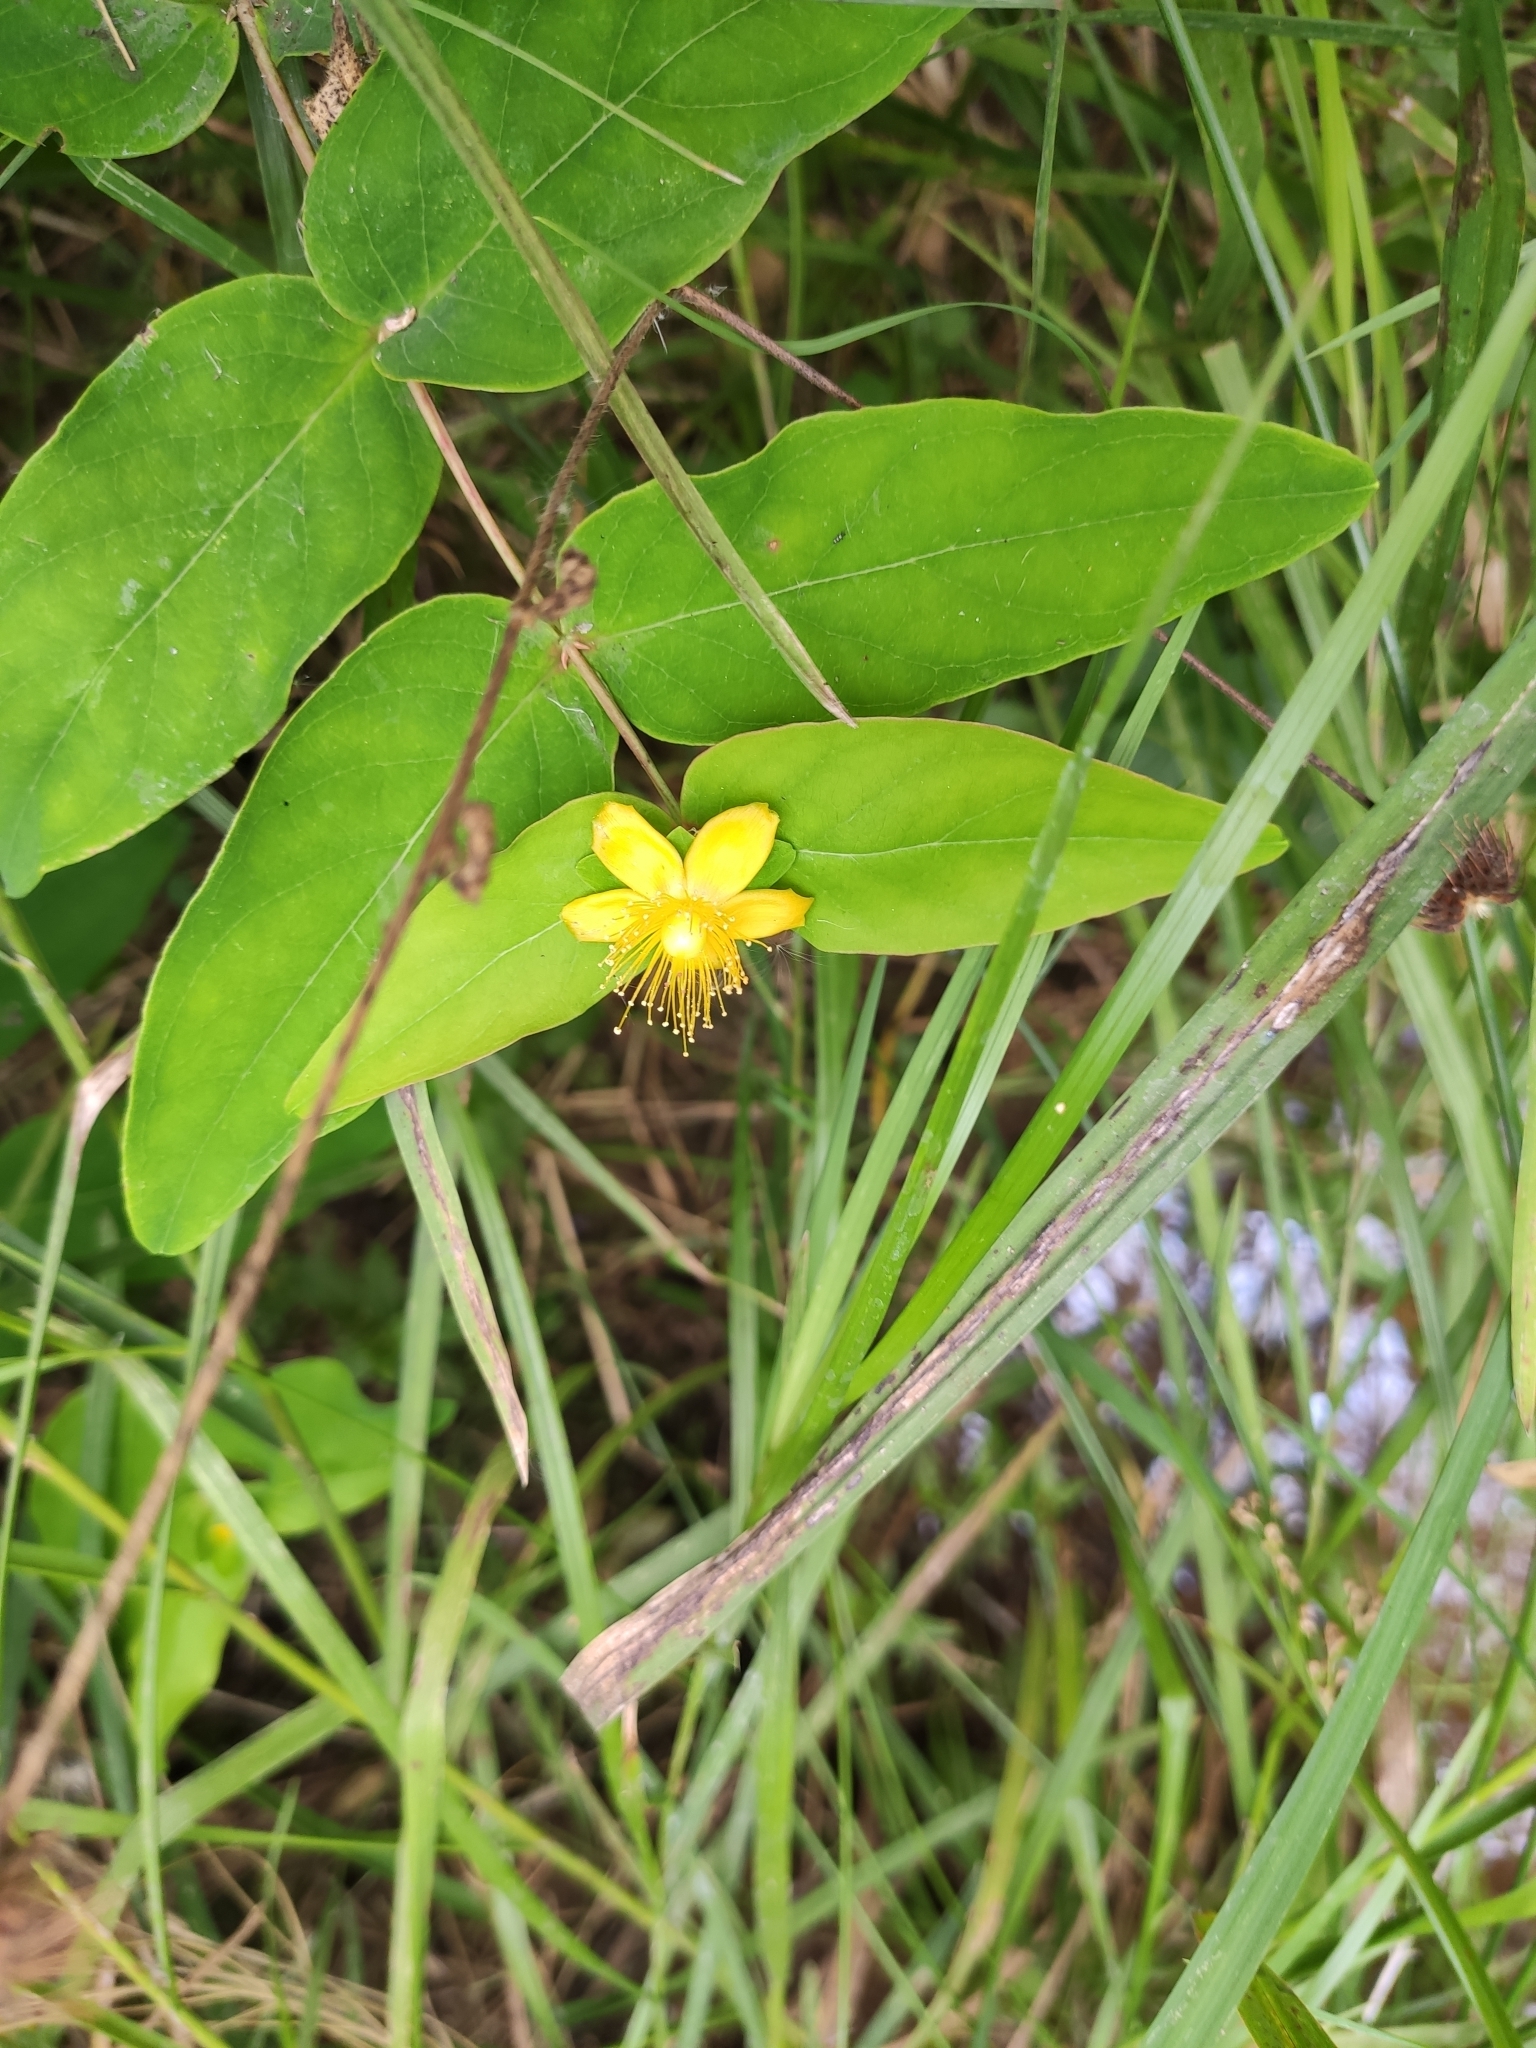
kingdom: Plantae
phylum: Tracheophyta
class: Magnoliopsida
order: Malpighiales
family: Hypericaceae
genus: Hypericum
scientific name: Hypericum androsaemum
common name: Sweet-amber
